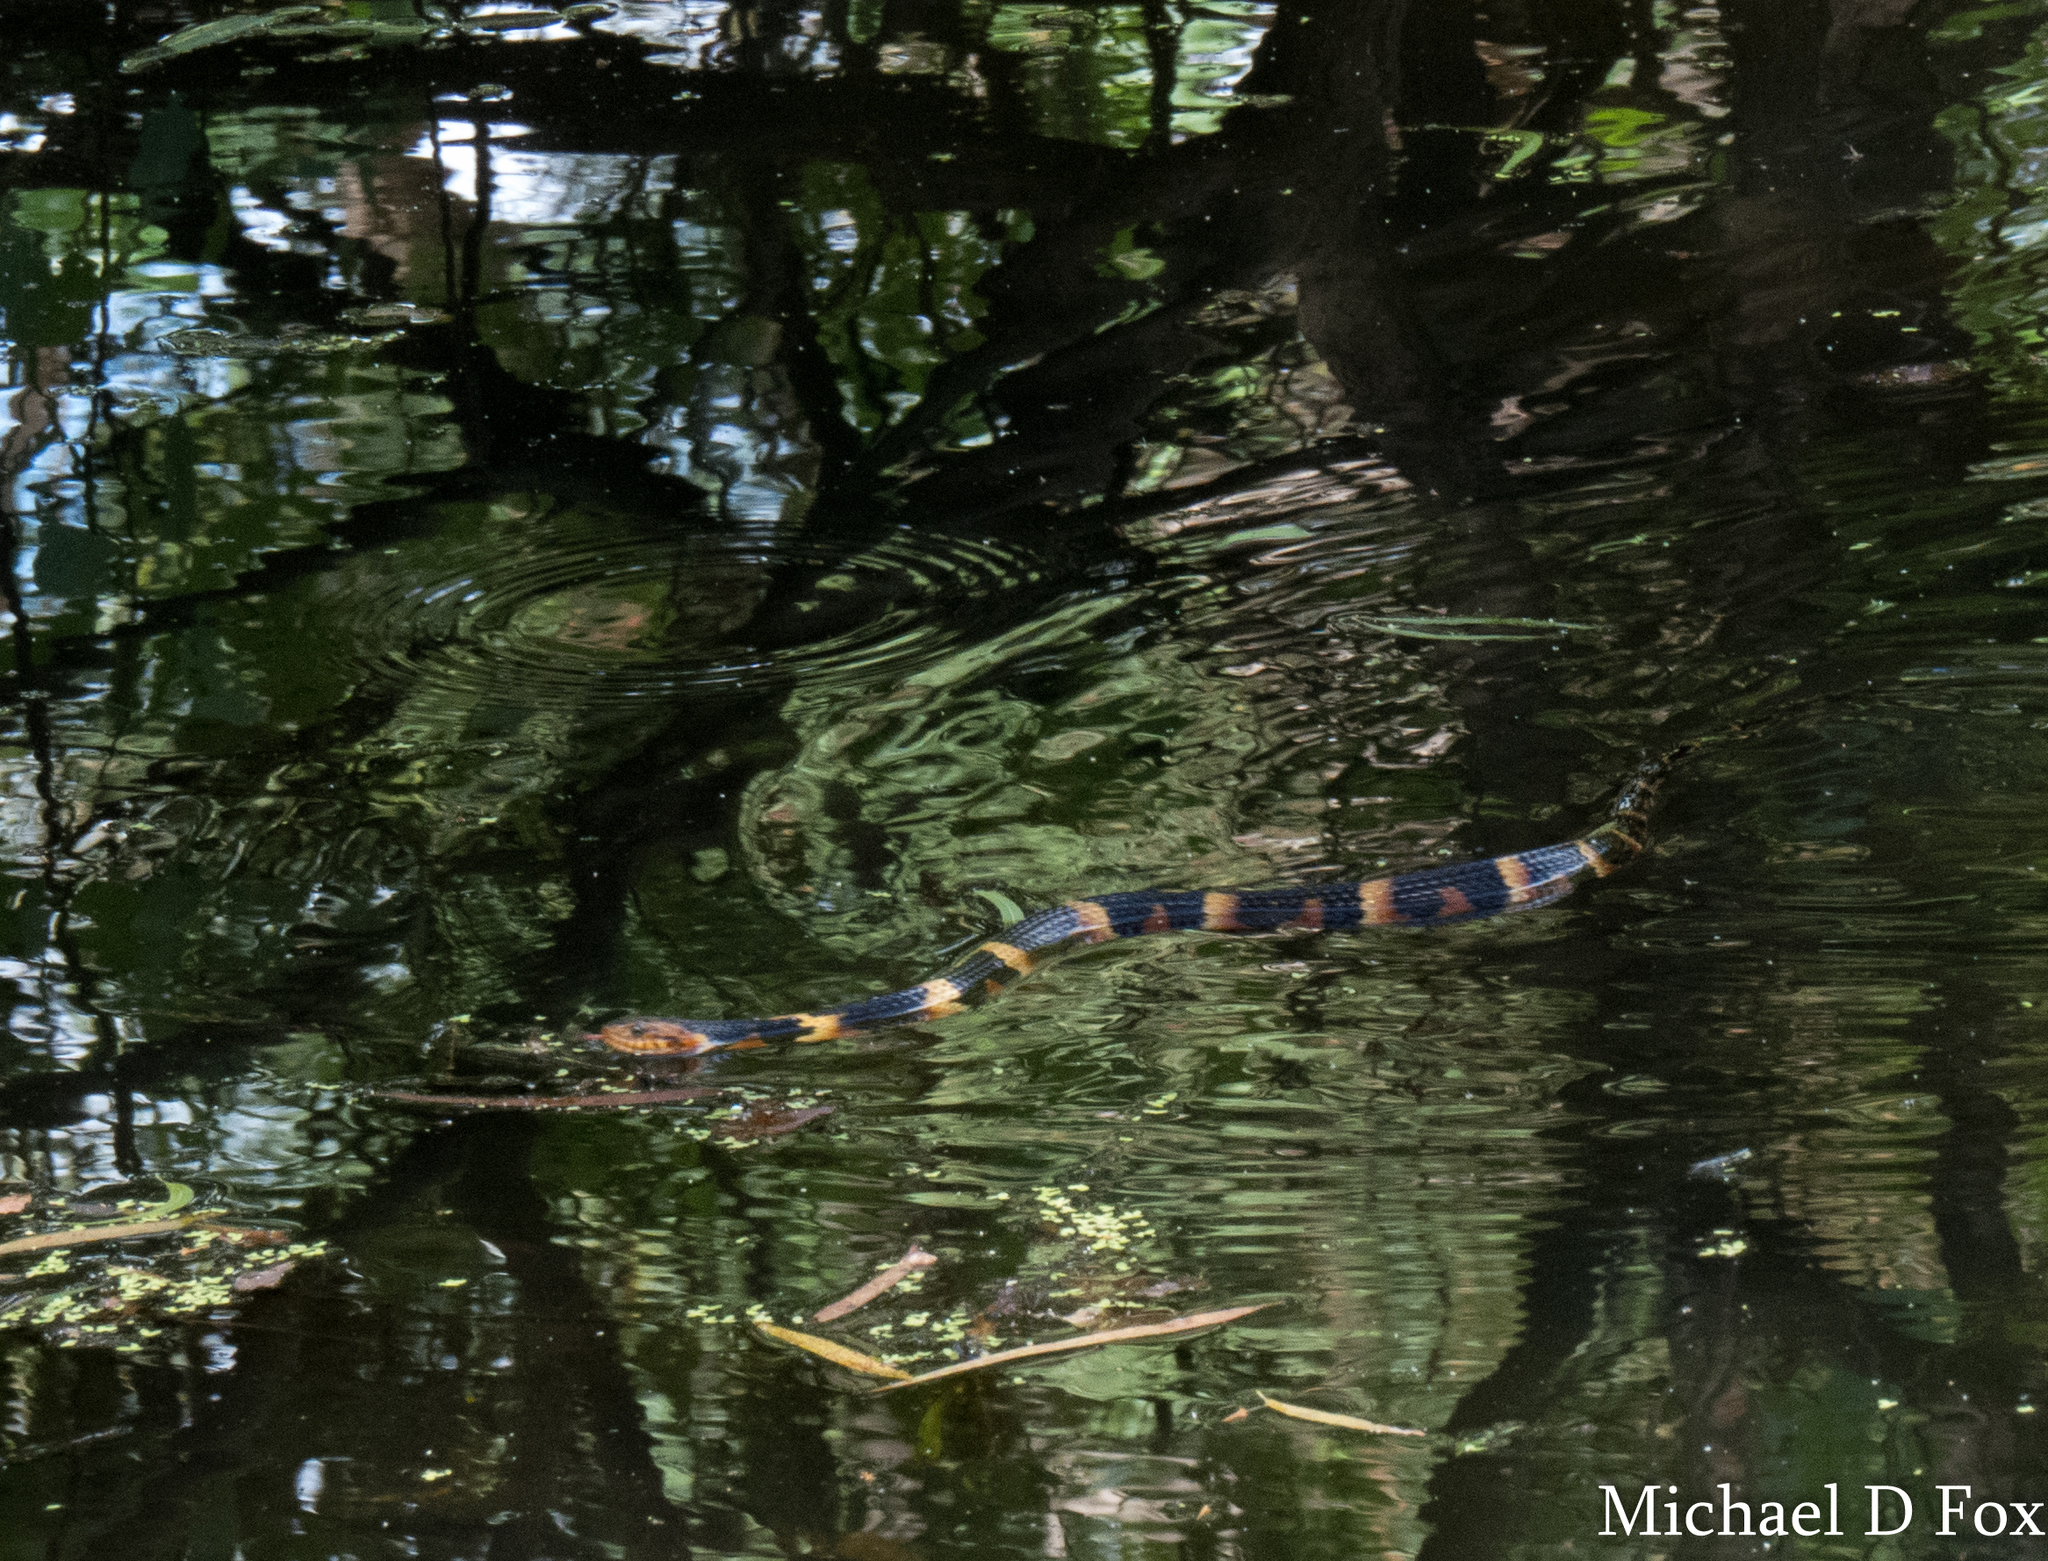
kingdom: Animalia
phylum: Chordata
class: Squamata
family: Colubridae
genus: Nerodia
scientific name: Nerodia fasciata
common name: Southern water snake
